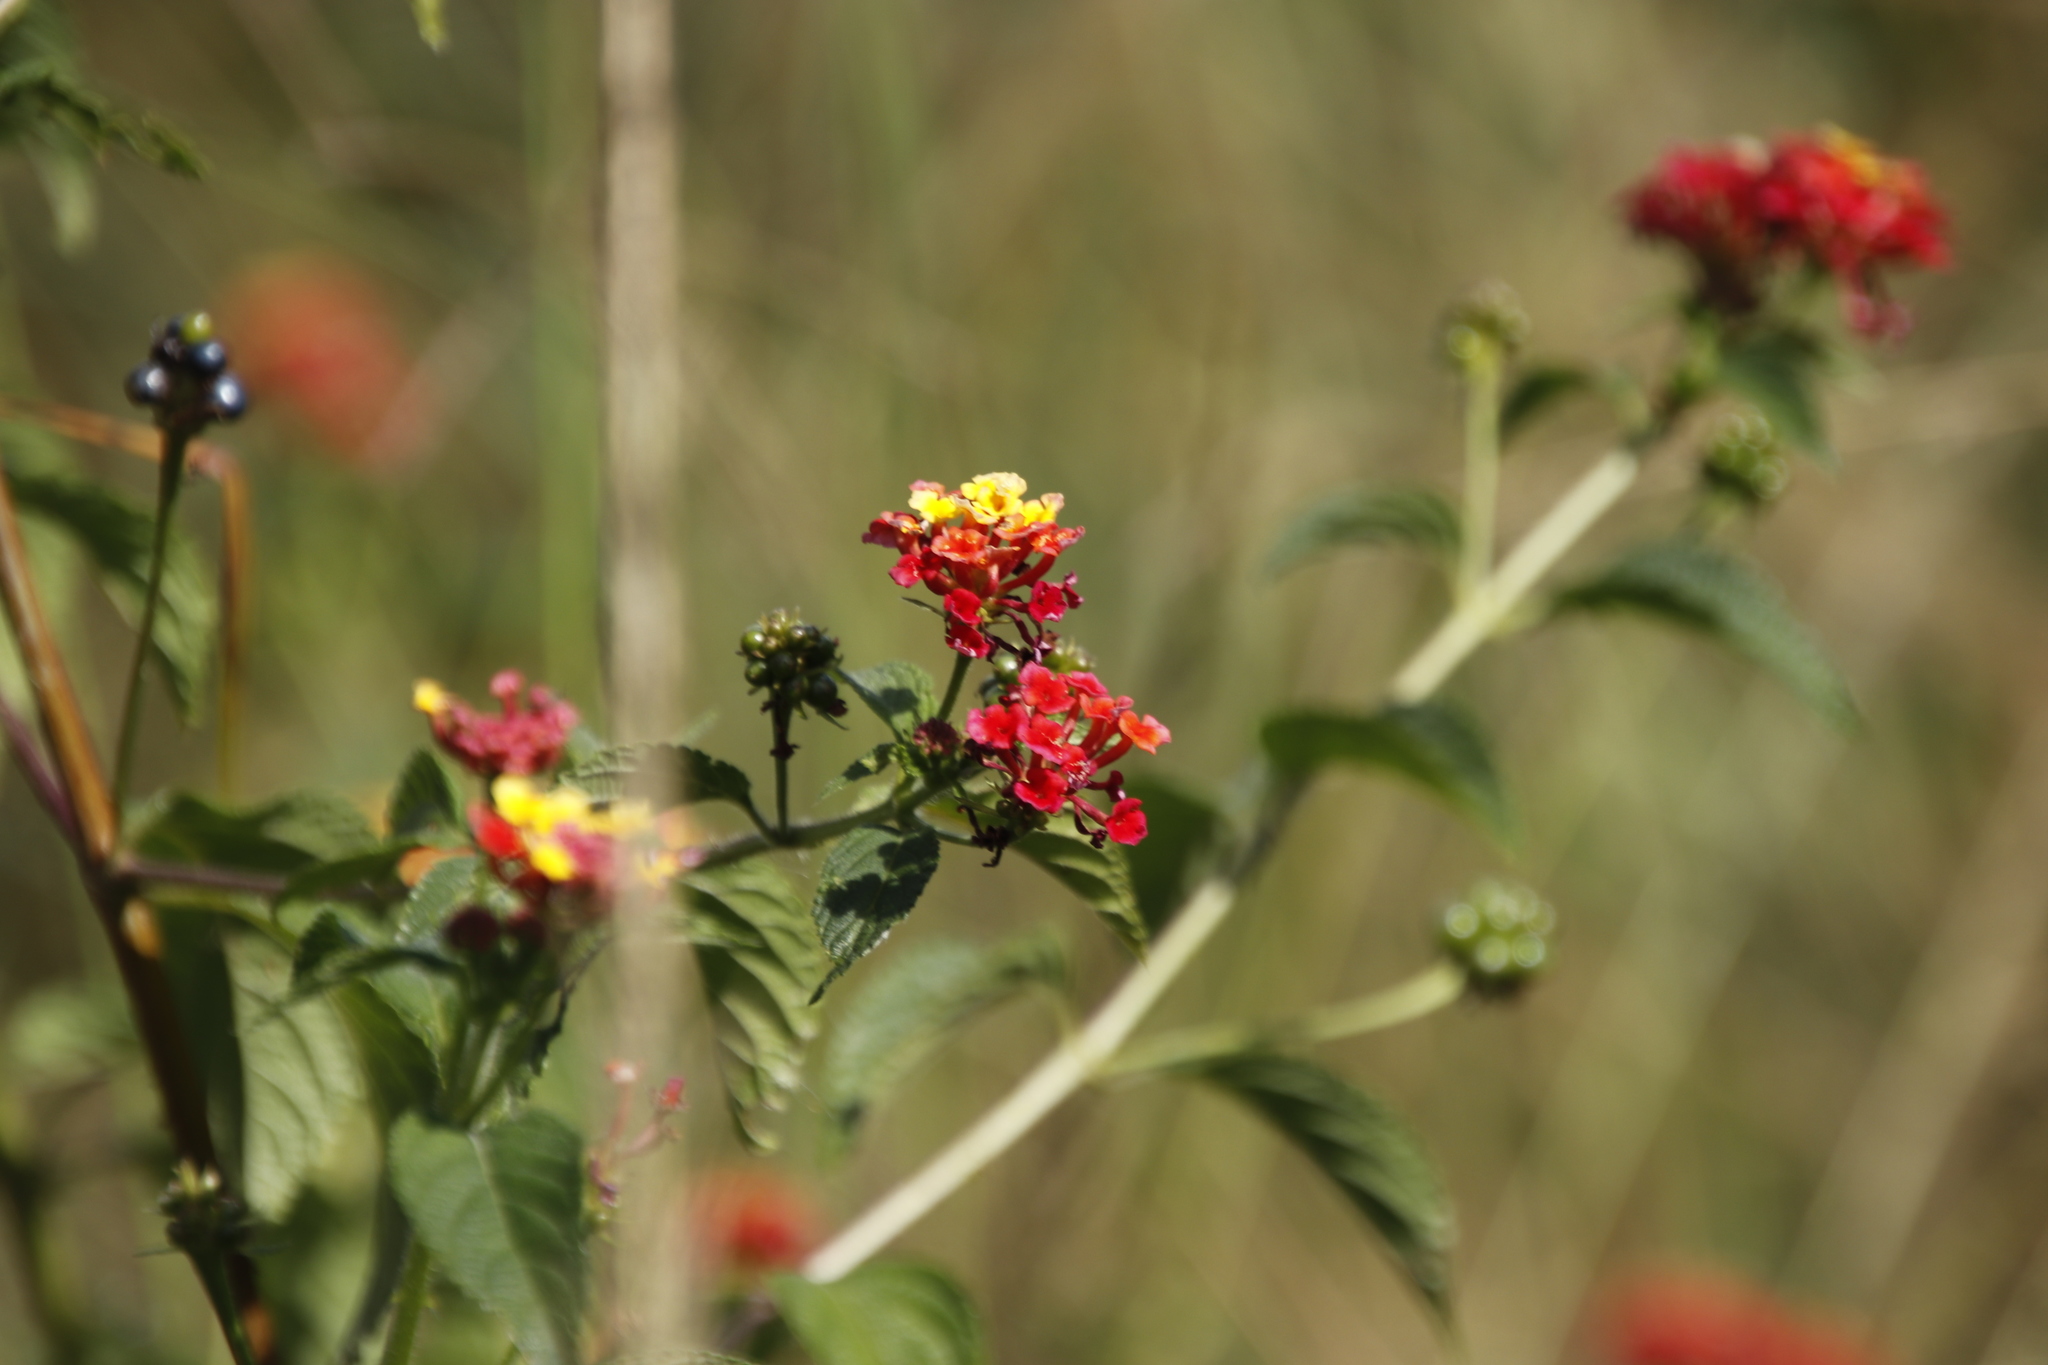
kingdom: Plantae
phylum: Tracheophyta
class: Magnoliopsida
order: Lamiales
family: Verbenaceae
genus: Lantana
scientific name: Lantana camara
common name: Lantana
